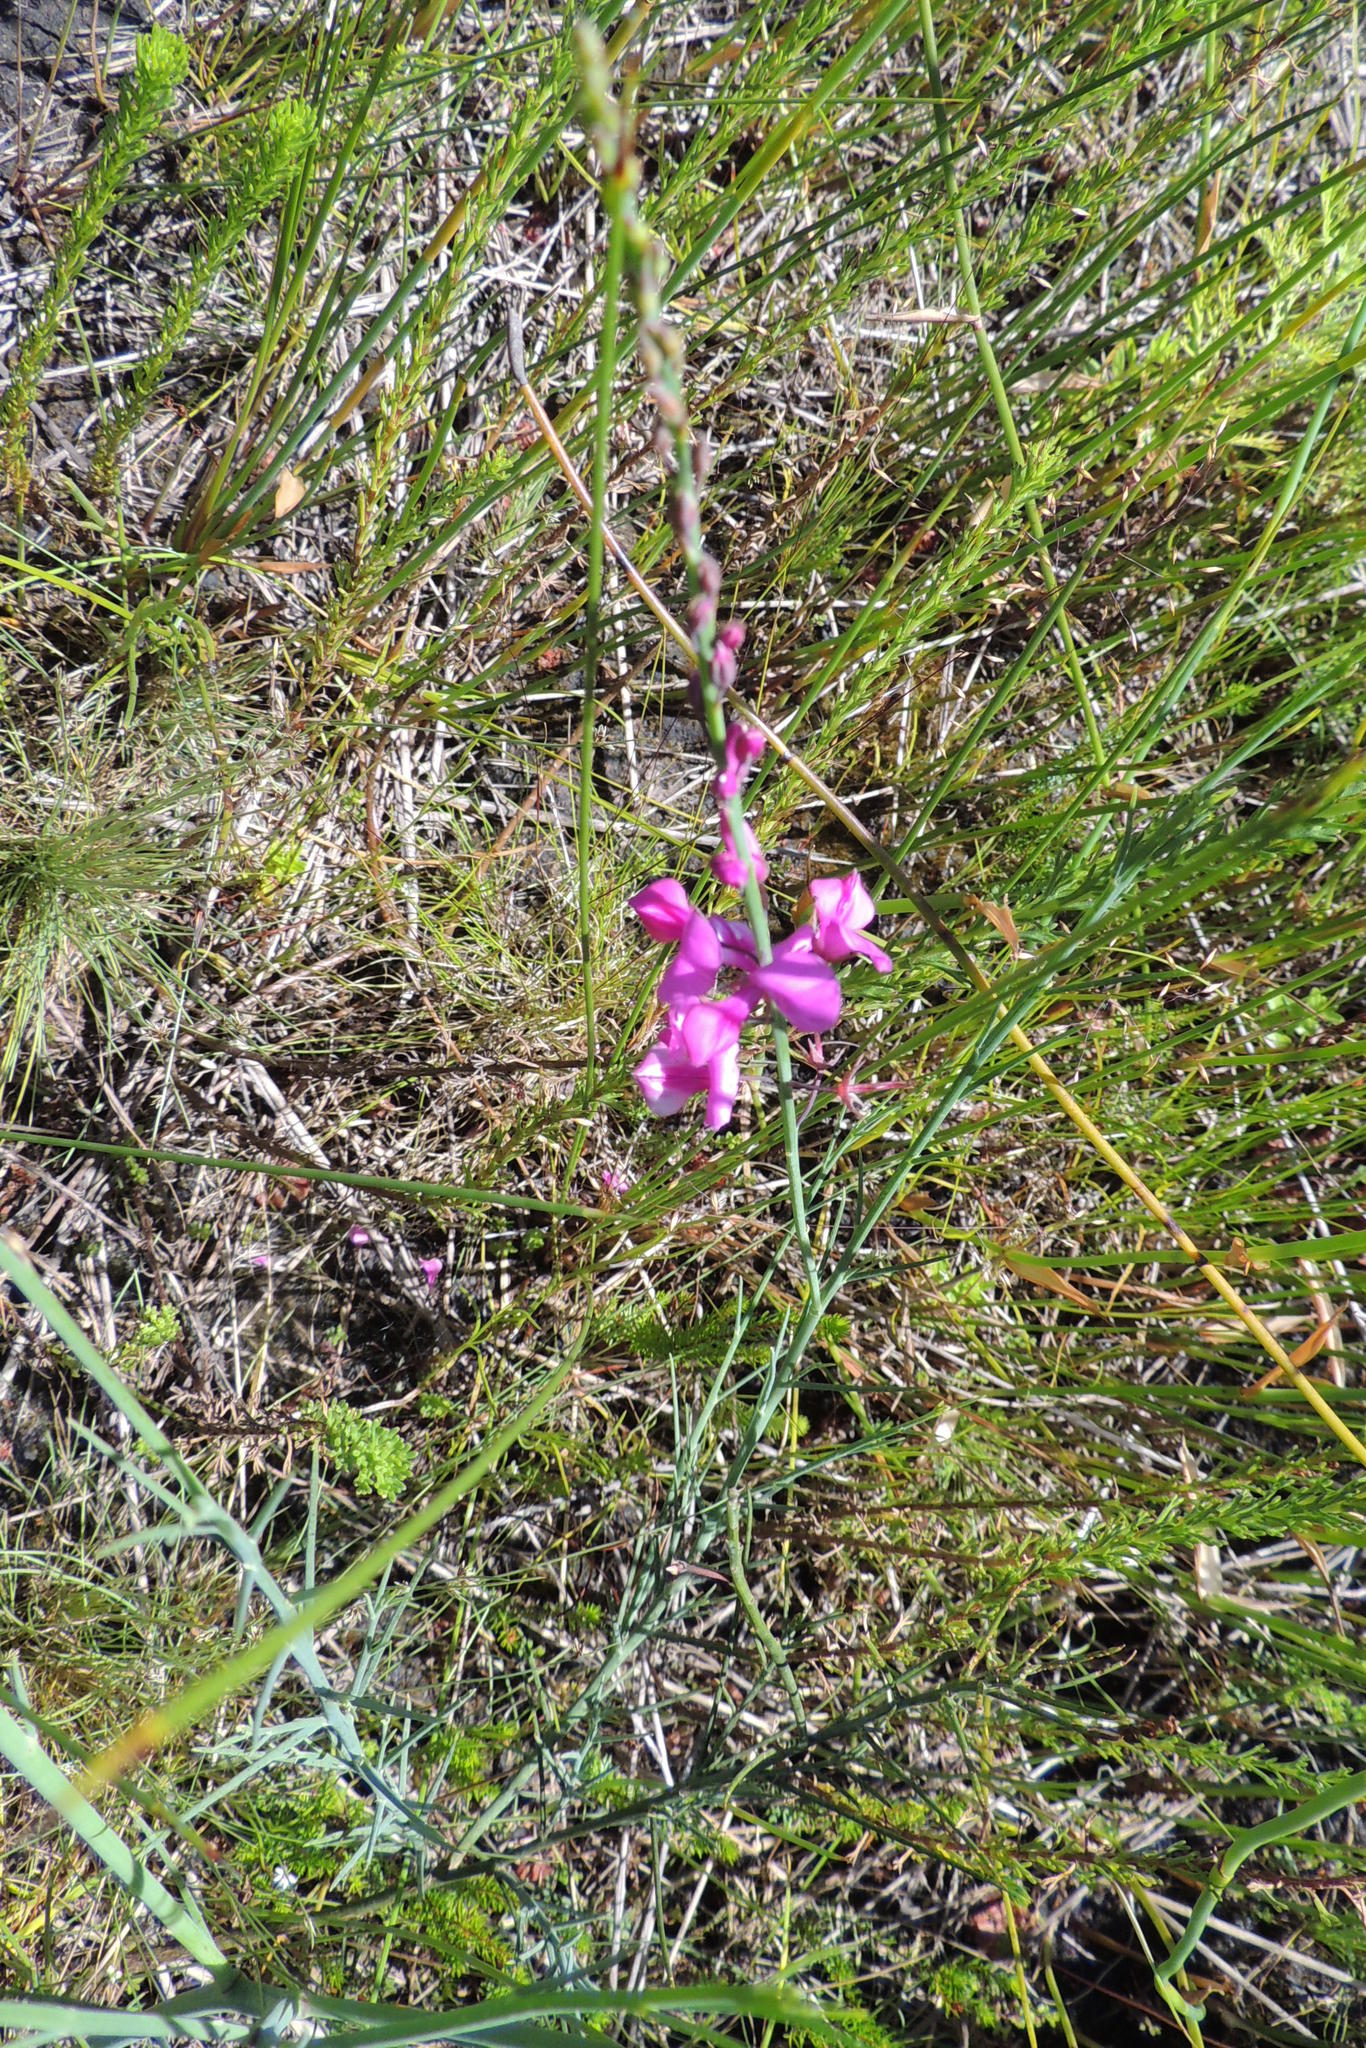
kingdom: Plantae
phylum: Tracheophyta
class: Magnoliopsida
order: Fabales
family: Fabaceae
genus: Indigofera
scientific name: Indigofera filifolia
